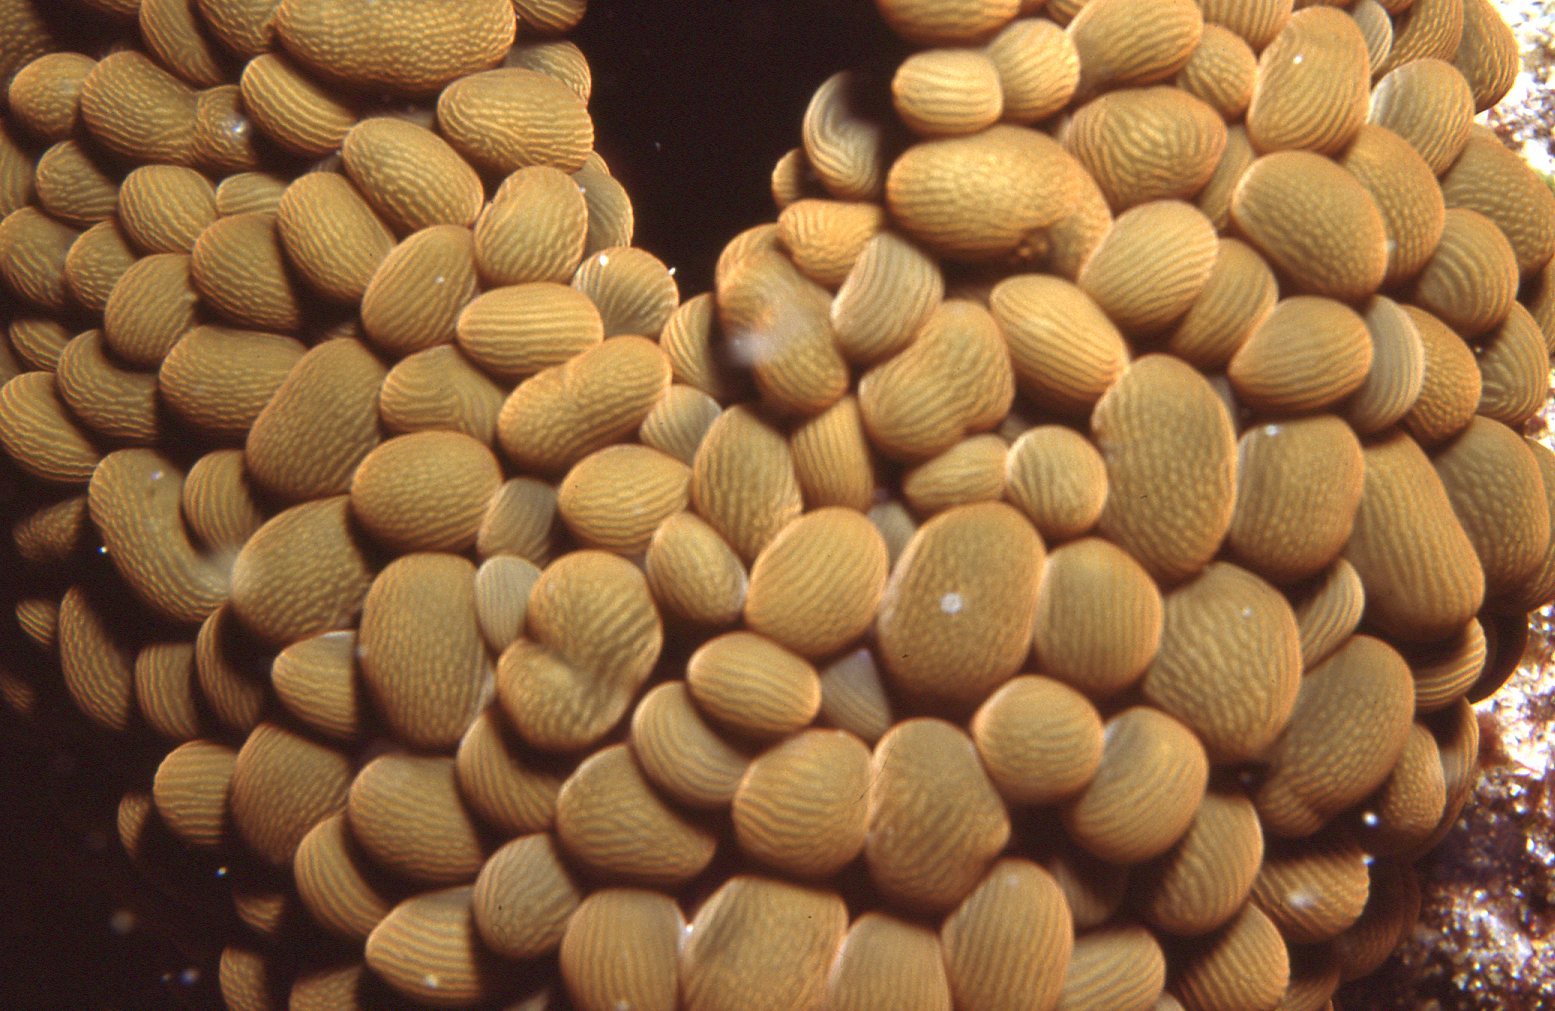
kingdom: Animalia
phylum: Cnidaria
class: Anthozoa
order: Actiniaria
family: Actiniidae
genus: Phlyctenactis
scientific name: Phlyctenactis tuberculosa
